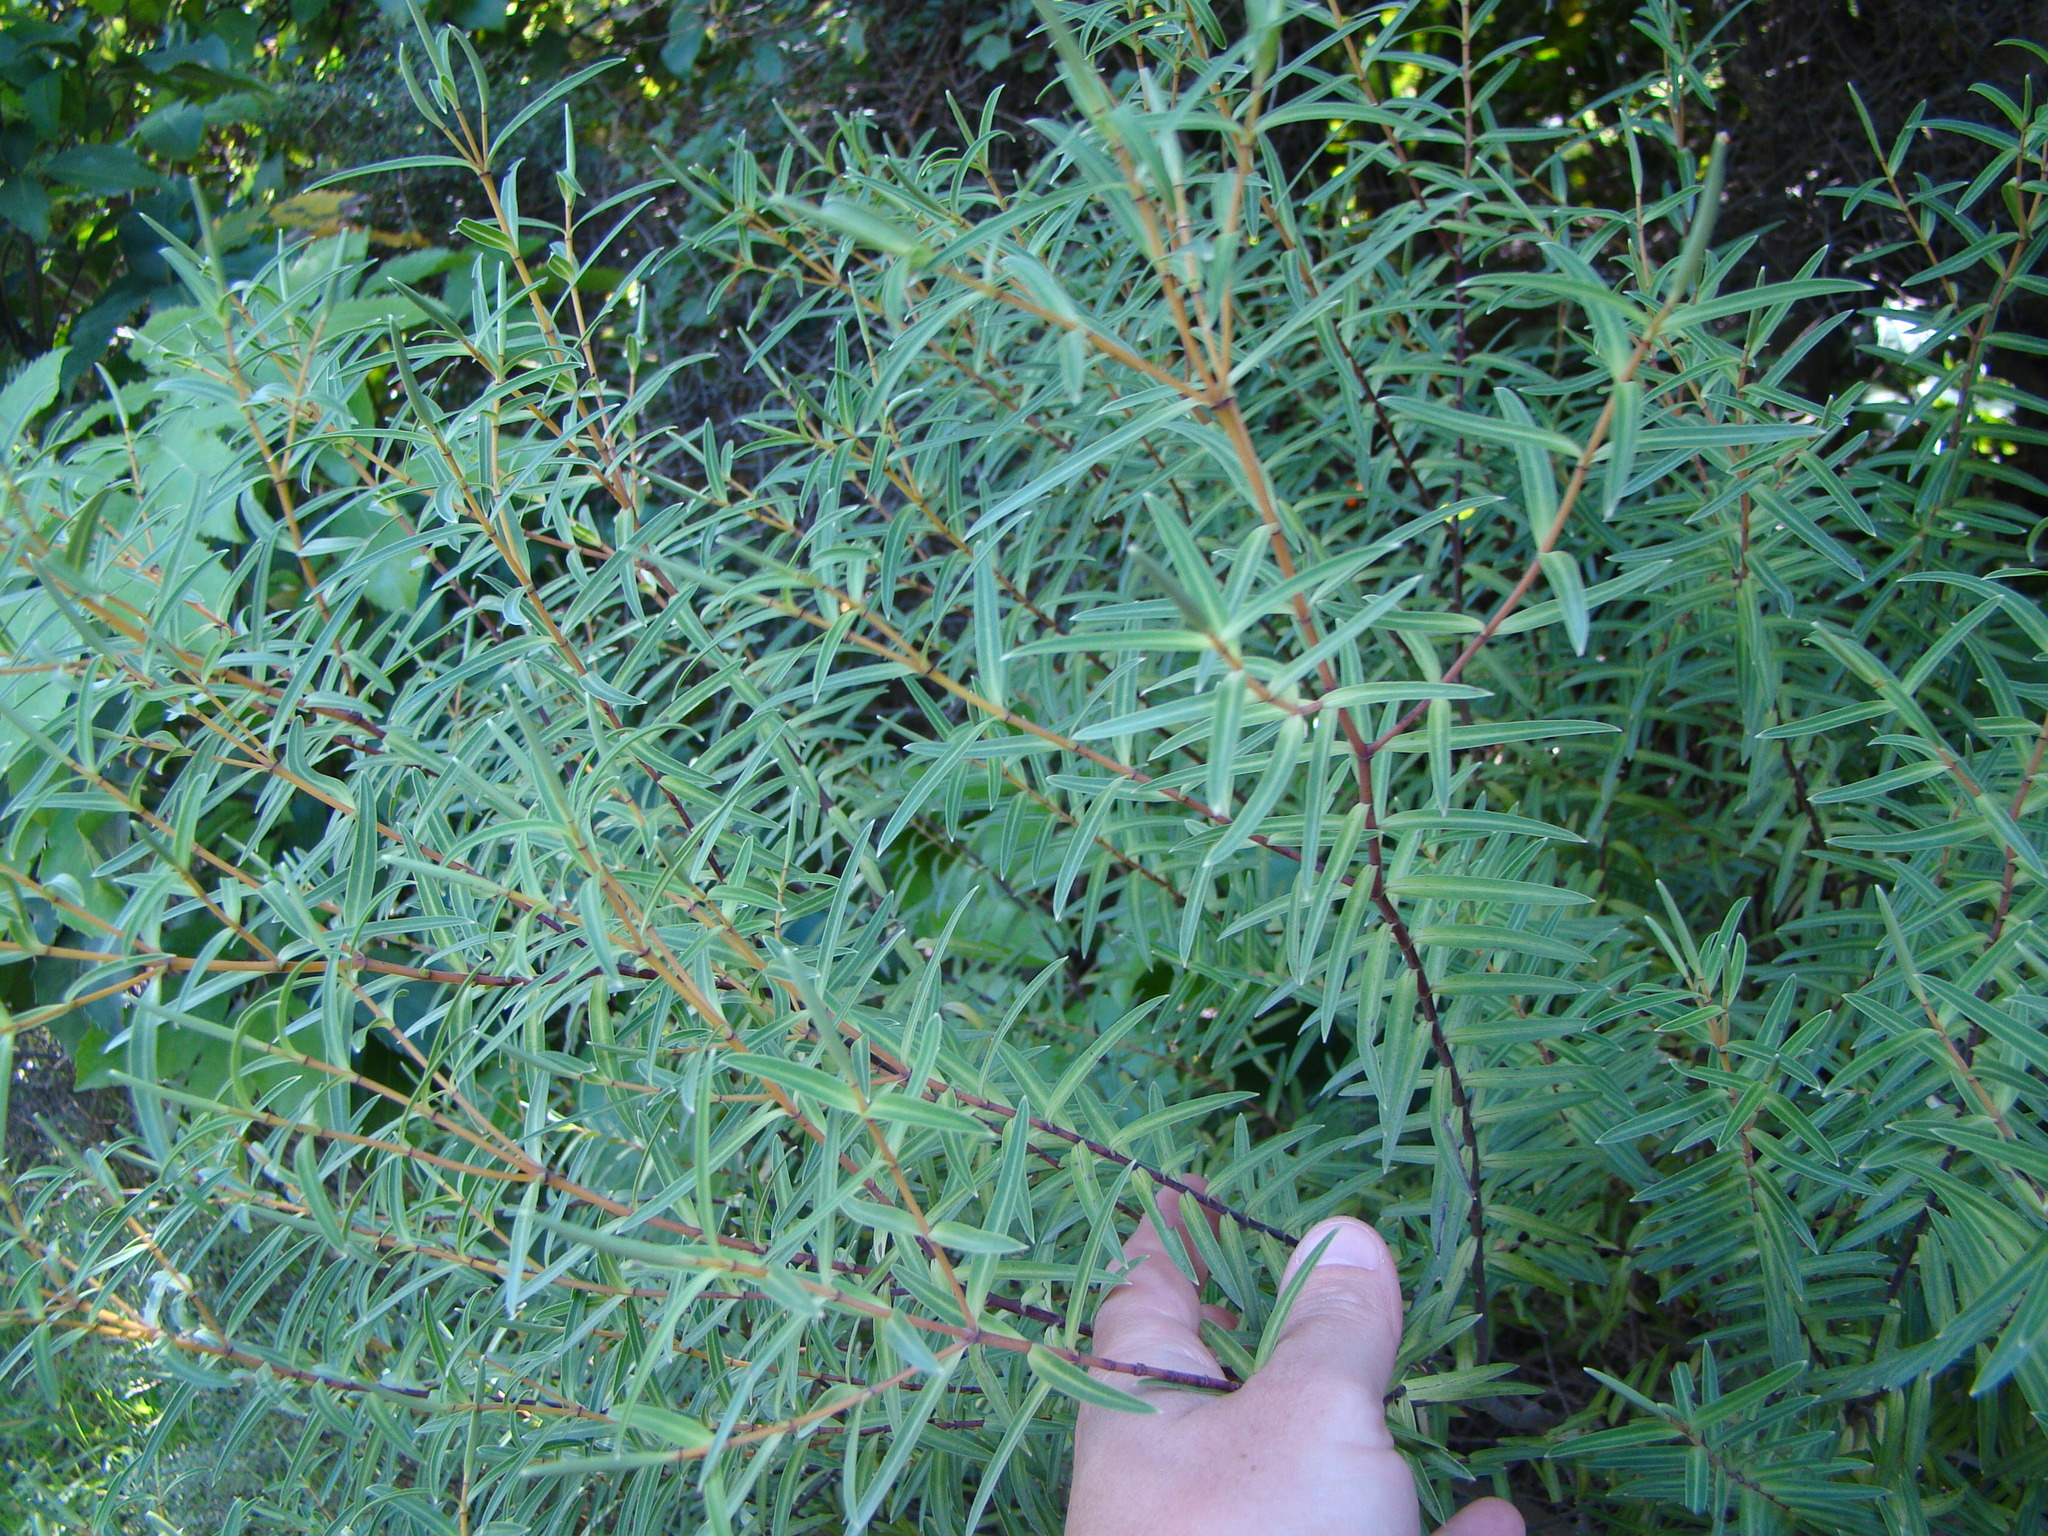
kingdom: Plantae
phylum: Tracheophyta
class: Magnoliopsida
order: Lamiales
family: Plantaginaceae
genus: Veronica
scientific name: Veronica parviflora
